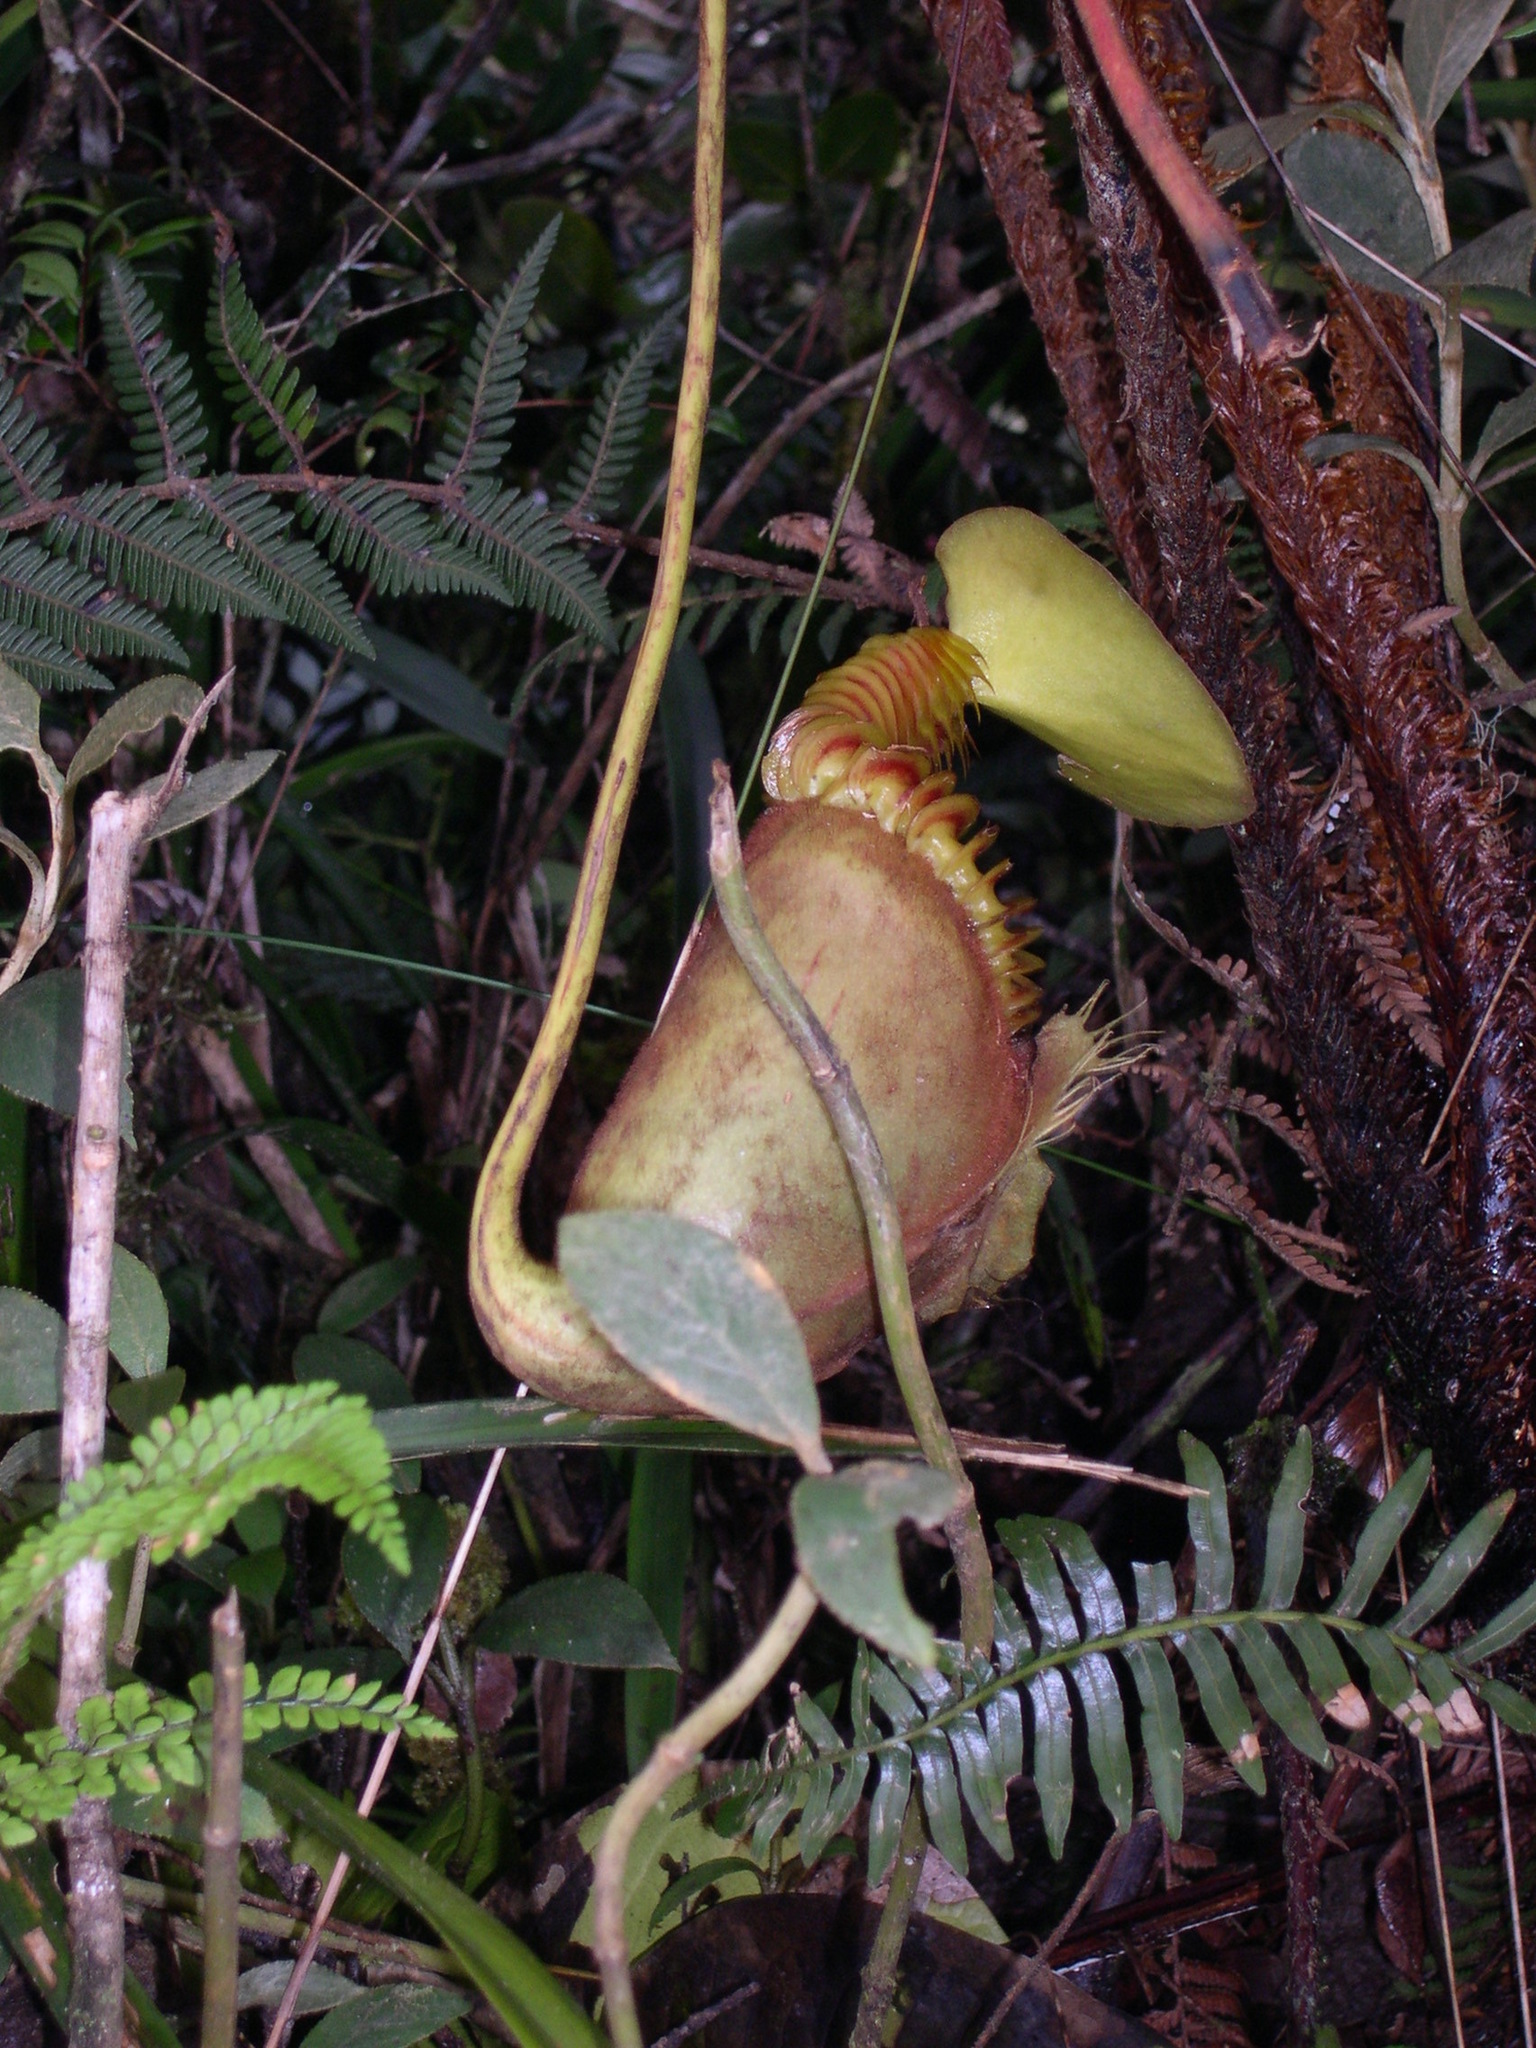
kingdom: Plantae
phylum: Tracheophyta
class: Magnoliopsida
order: Caryophyllales
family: Nepenthaceae
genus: Nepenthes
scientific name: Nepenthes villosa
